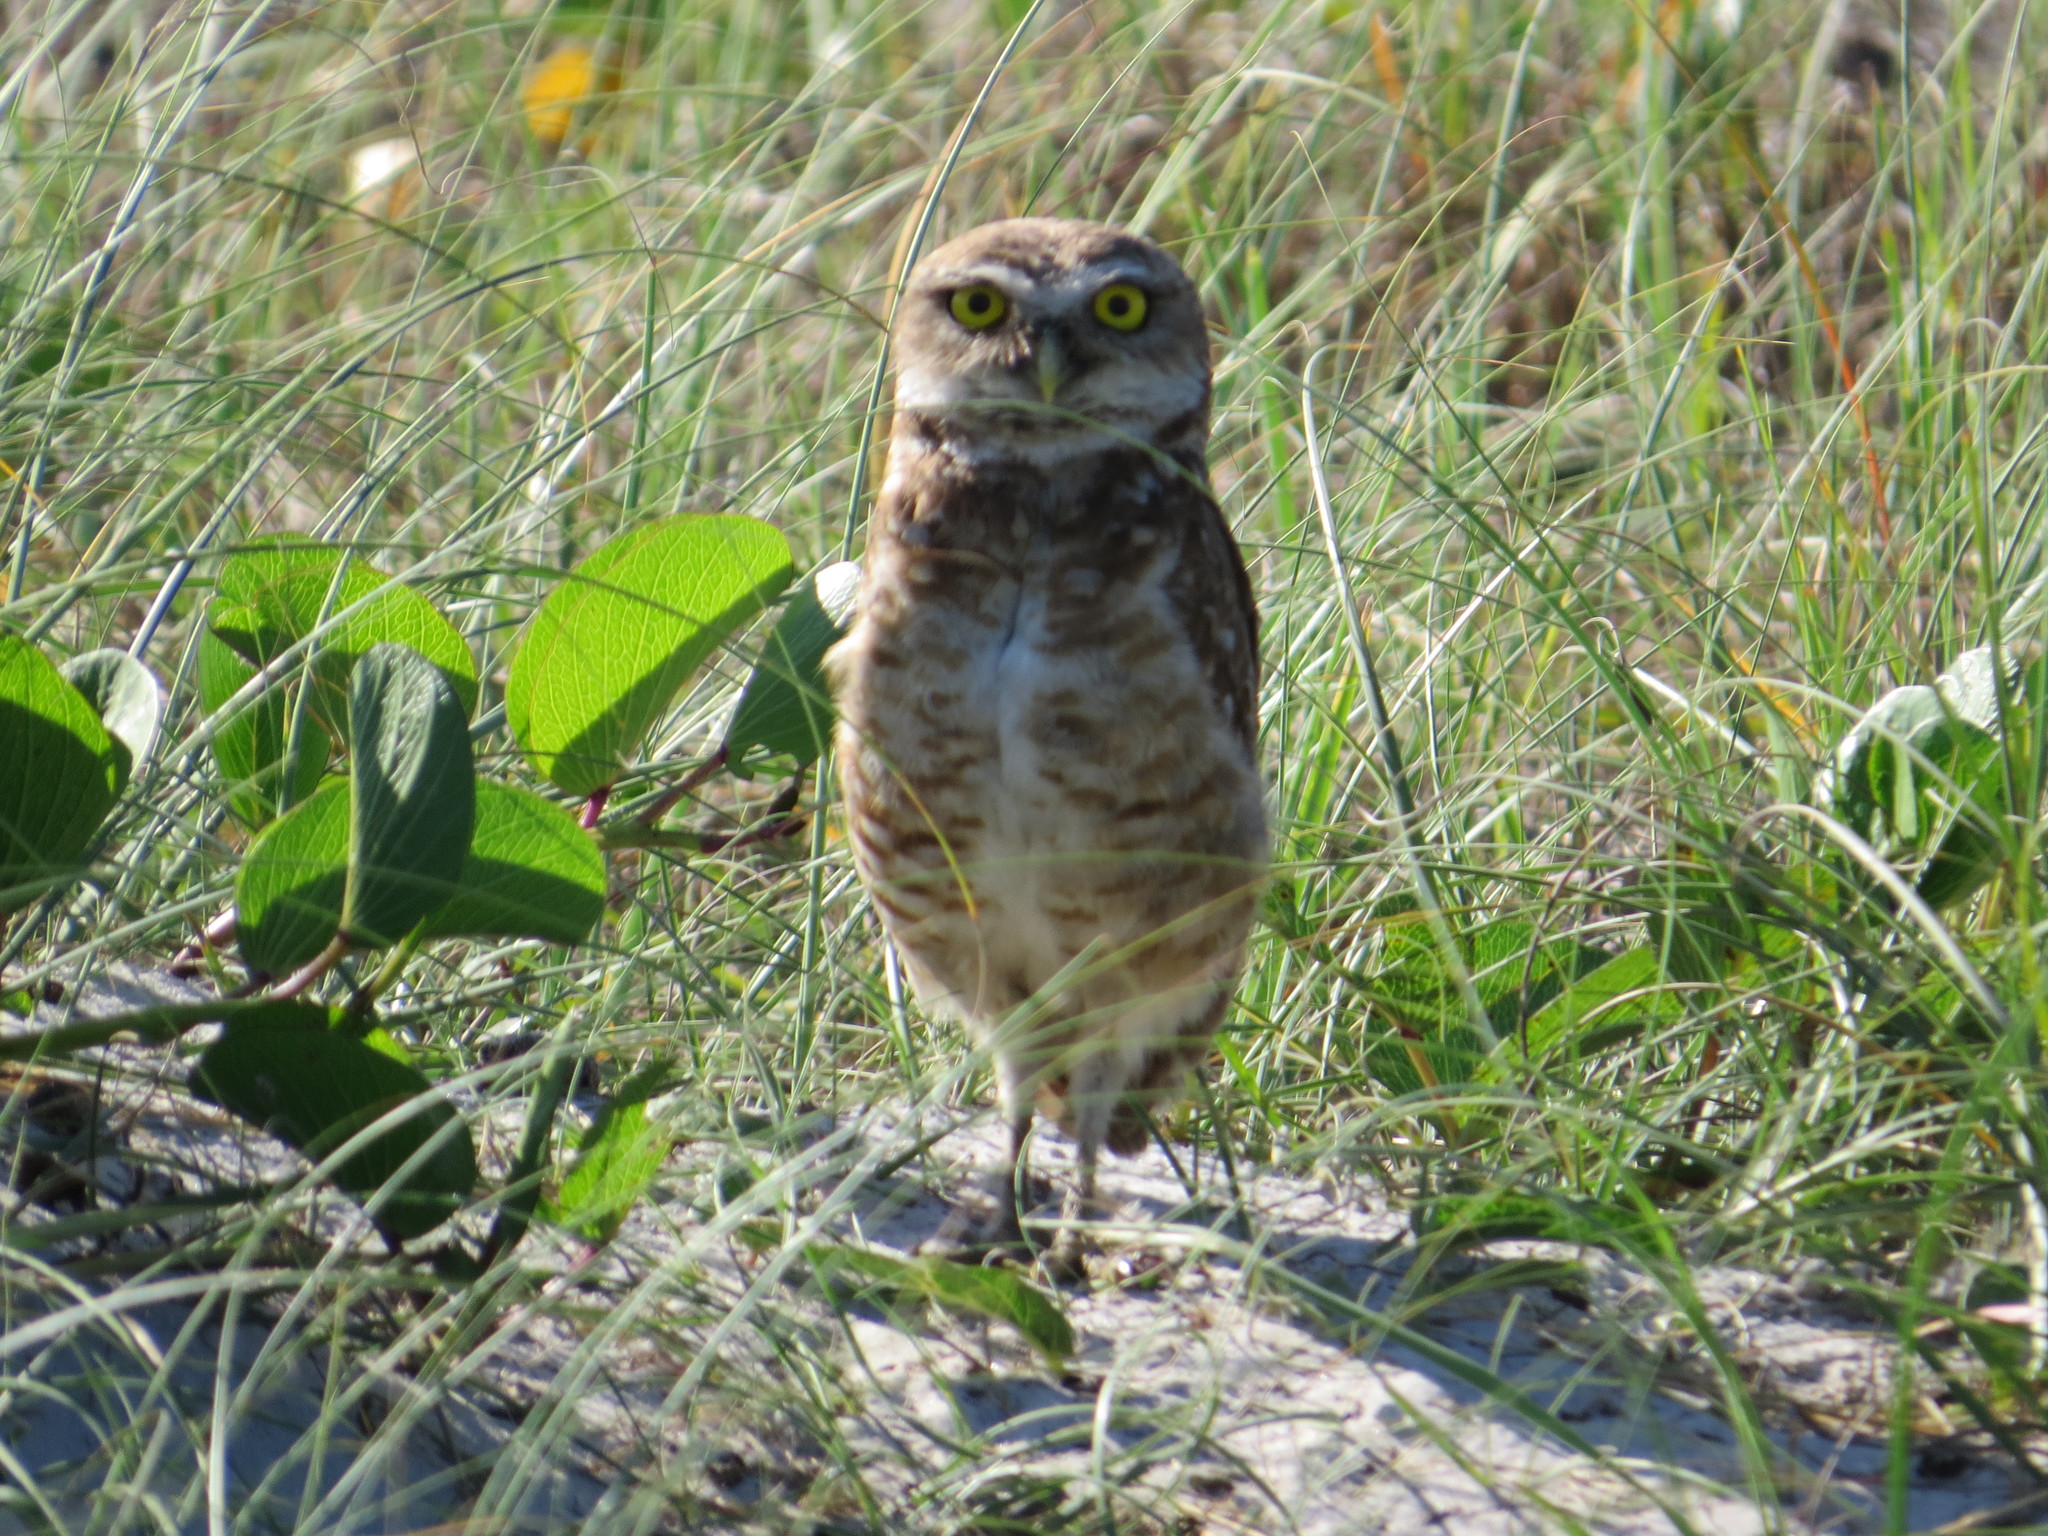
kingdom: Animalia
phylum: Chordata
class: Aves
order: Strigiformes
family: Strigidae
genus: Athene
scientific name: Athene cunicularia
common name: Burrowing owl
